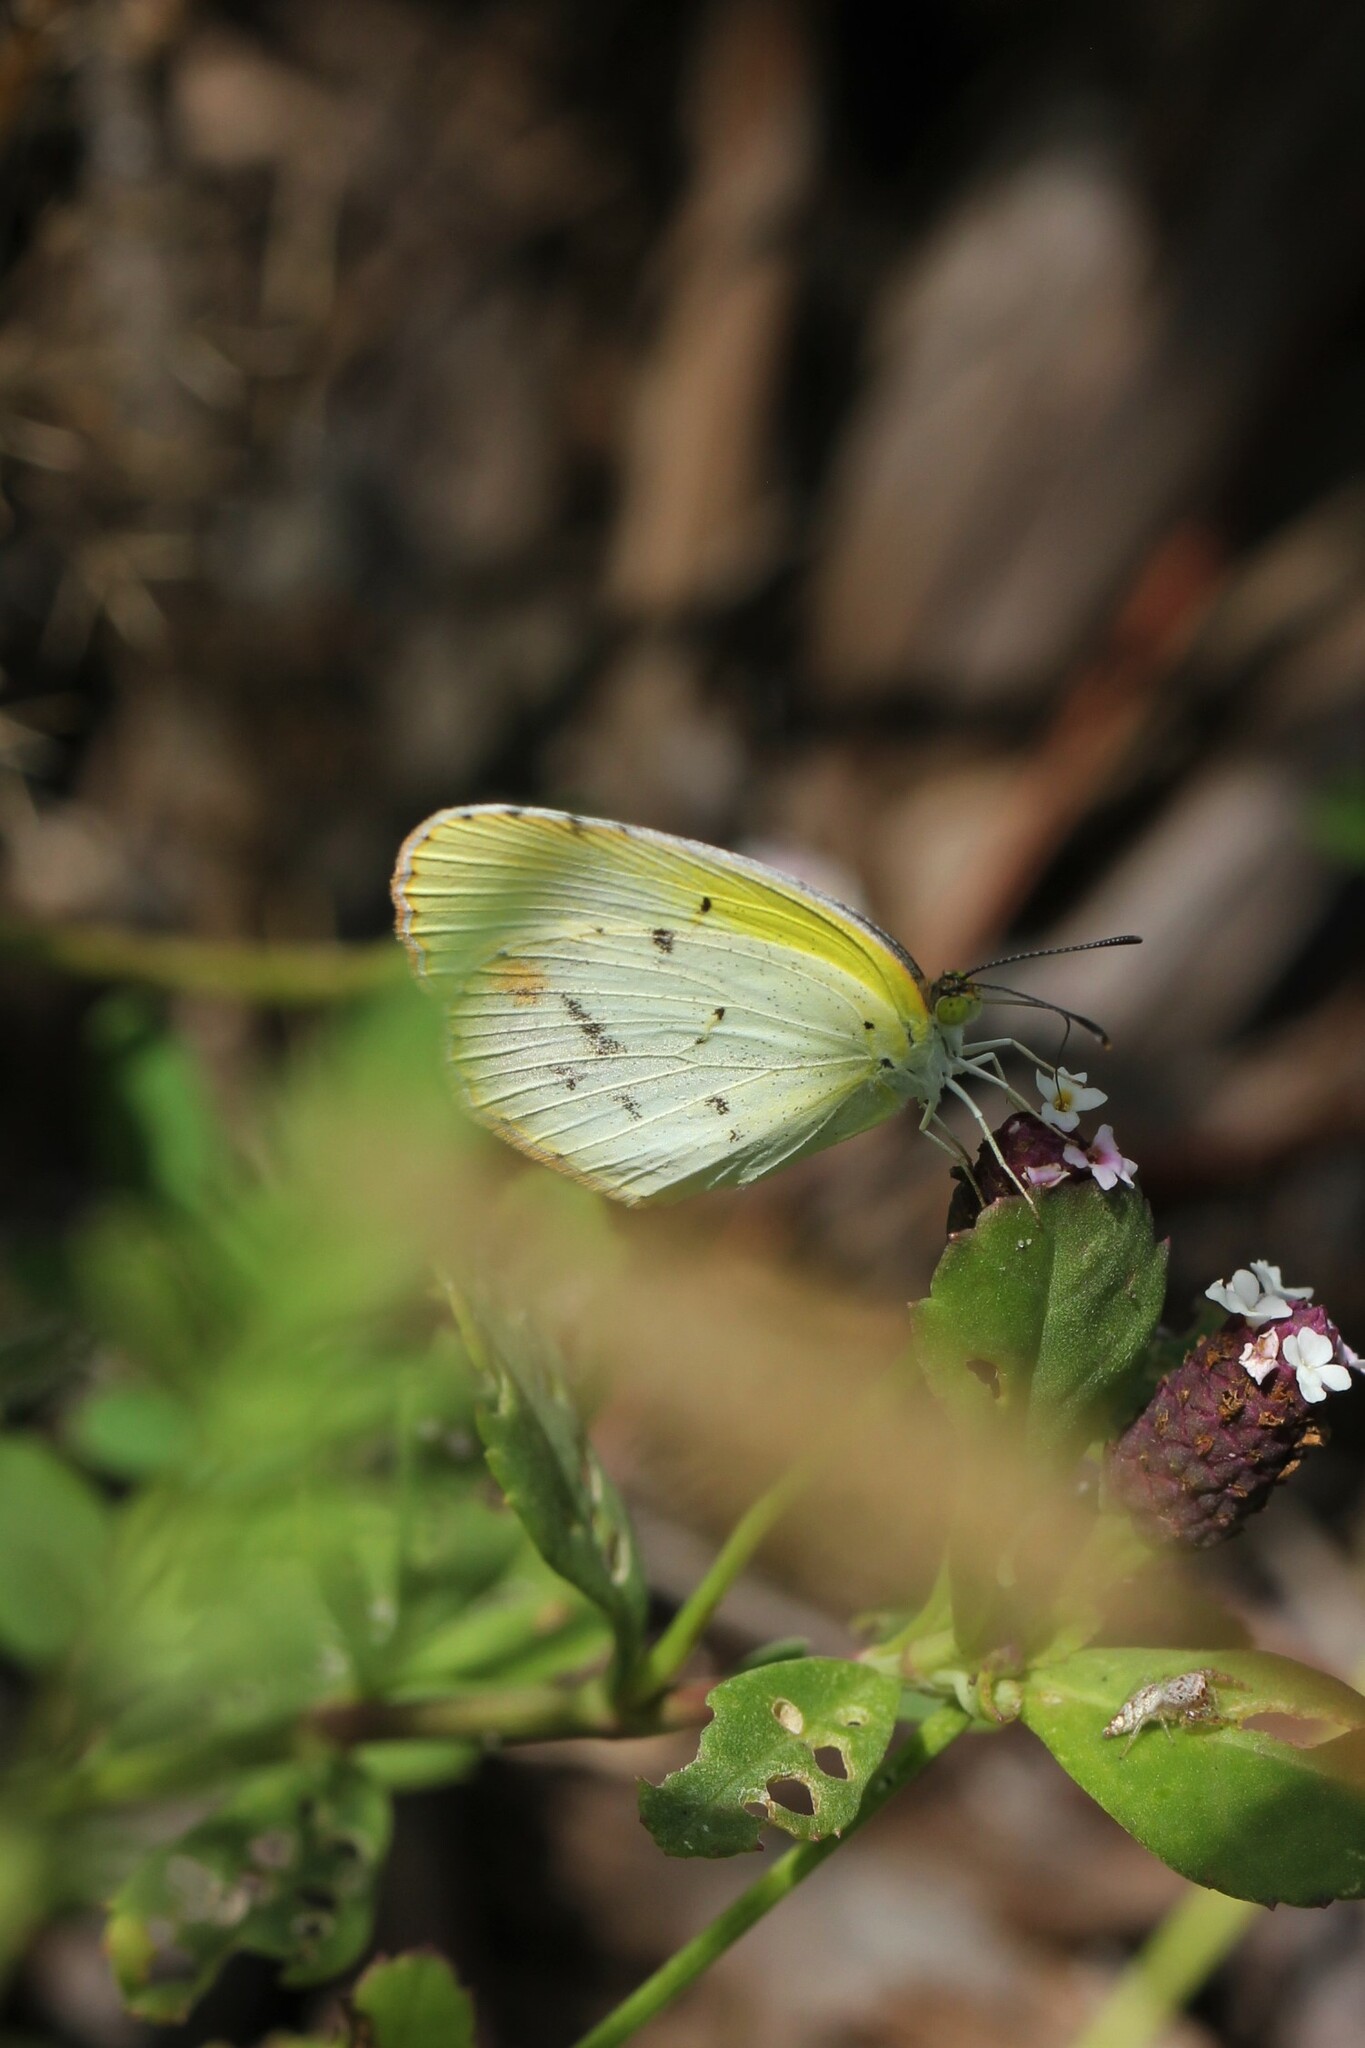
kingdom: Animalia
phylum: Arthropoda
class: Insecta
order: Lepidoptera
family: Pieridae
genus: Pyrisitia
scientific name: Pyrisitia lisa
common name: Little yellow
